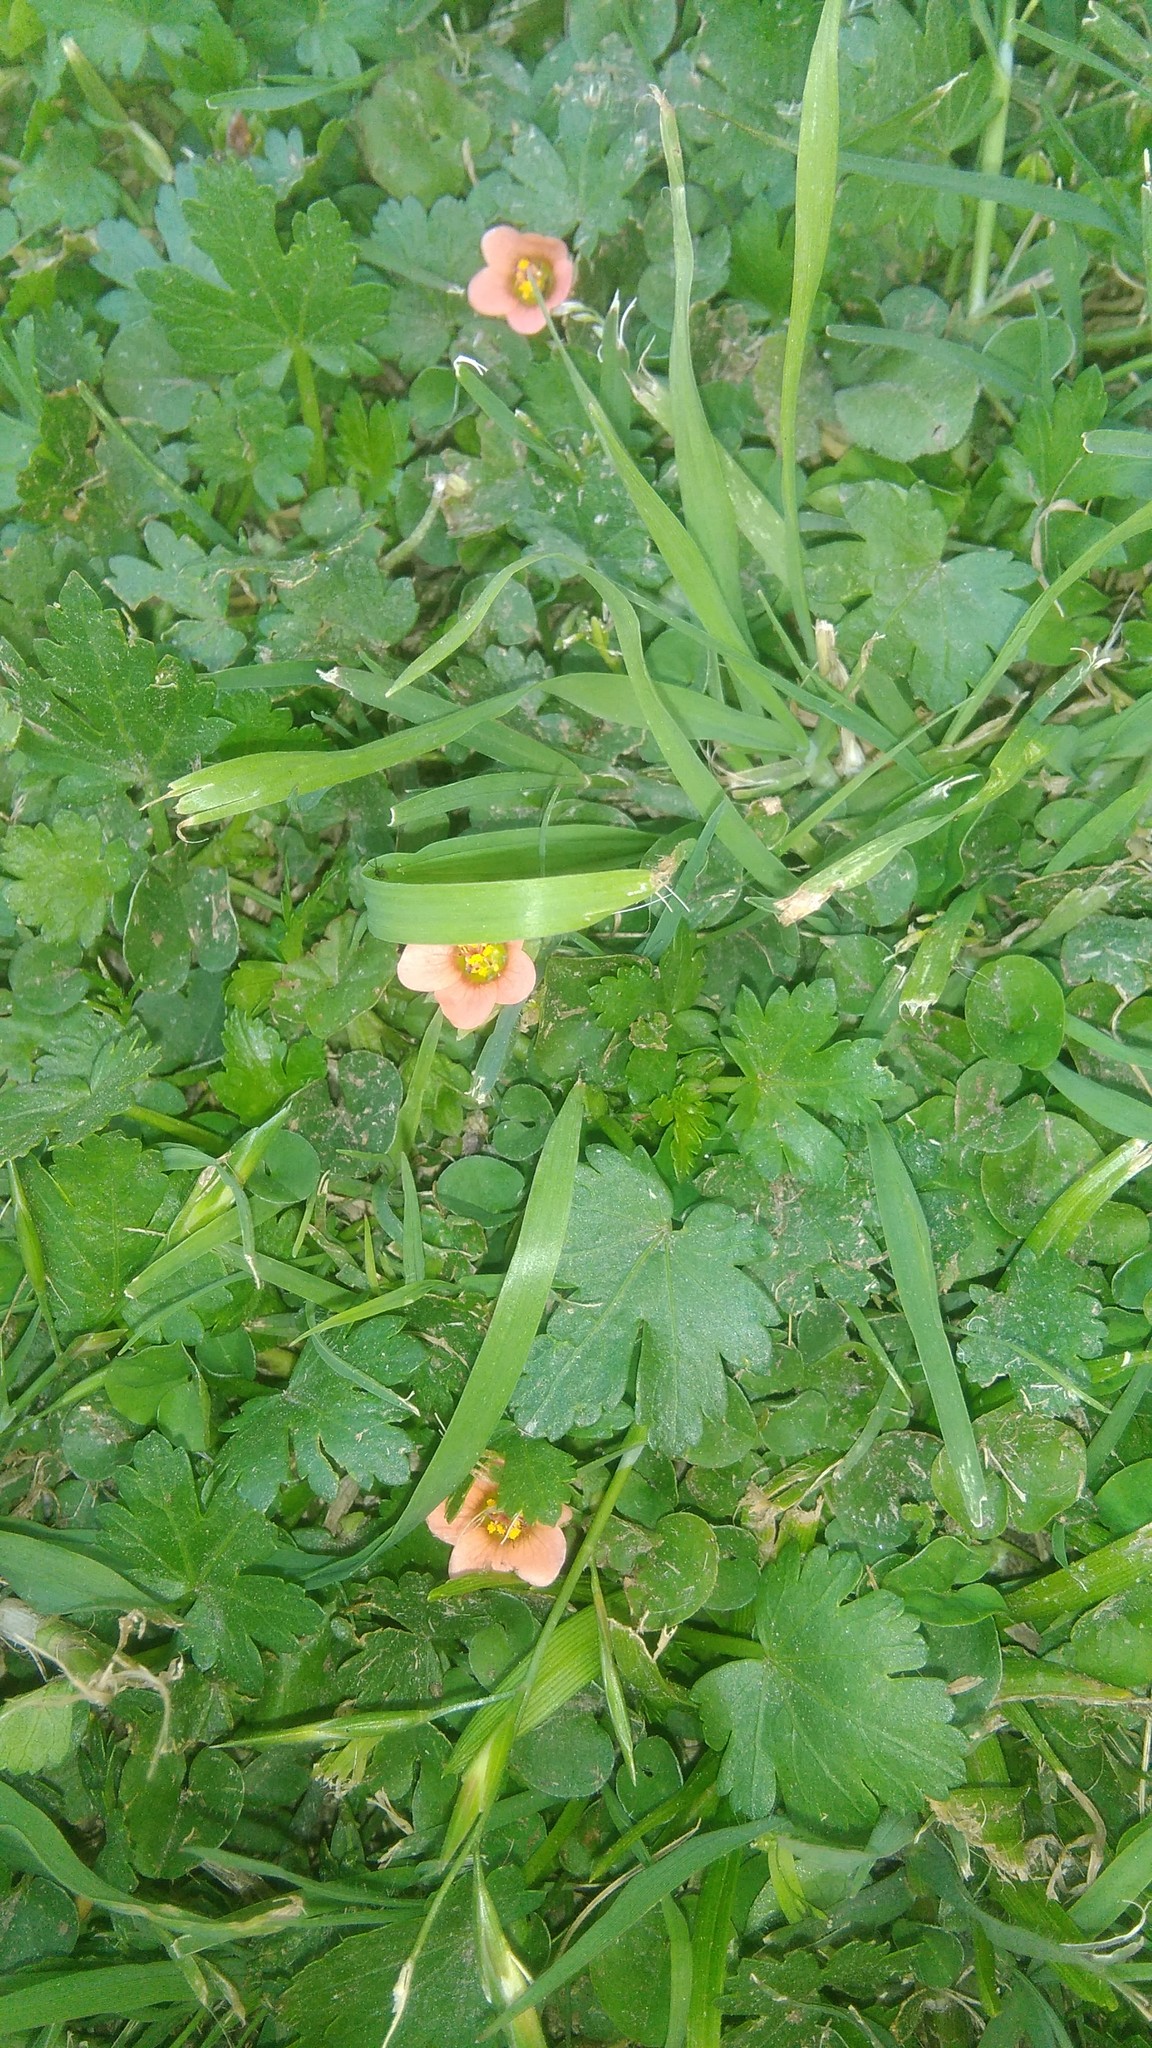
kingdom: Plantae
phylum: Tracheophyta
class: Magnoliopsida
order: Malvales
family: Malvaceae
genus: Modiola
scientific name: Modiola caroliniana
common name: Carolina bristlemallow
